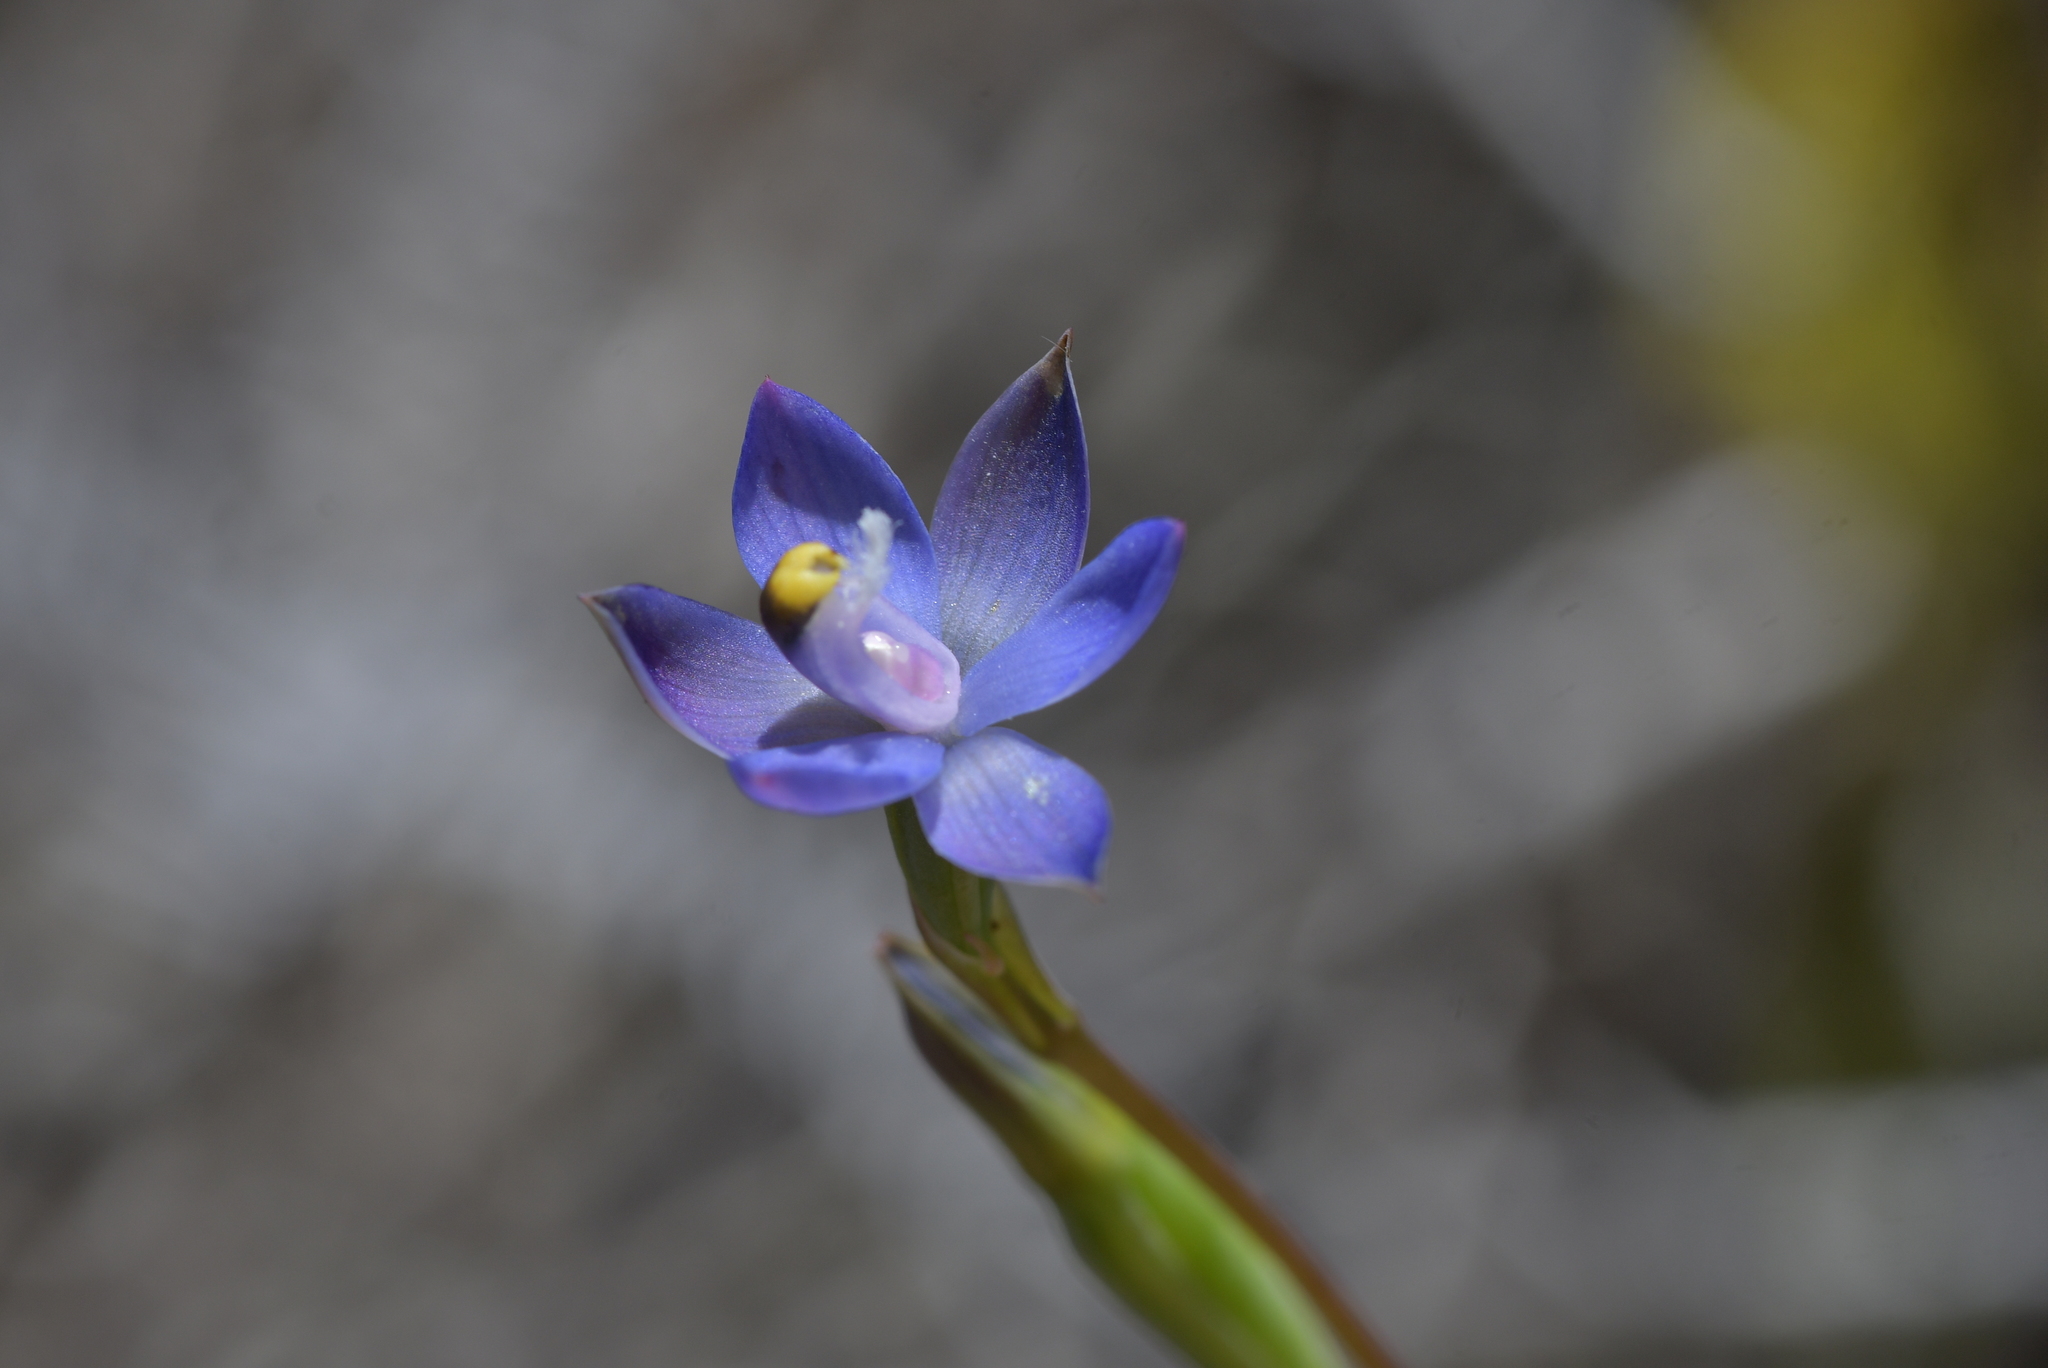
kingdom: Plantae
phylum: Tracheophyta
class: Liliopsida
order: Asparagales
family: Orchidaceae
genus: Thelymitra
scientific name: Thelymitra pauciflora
